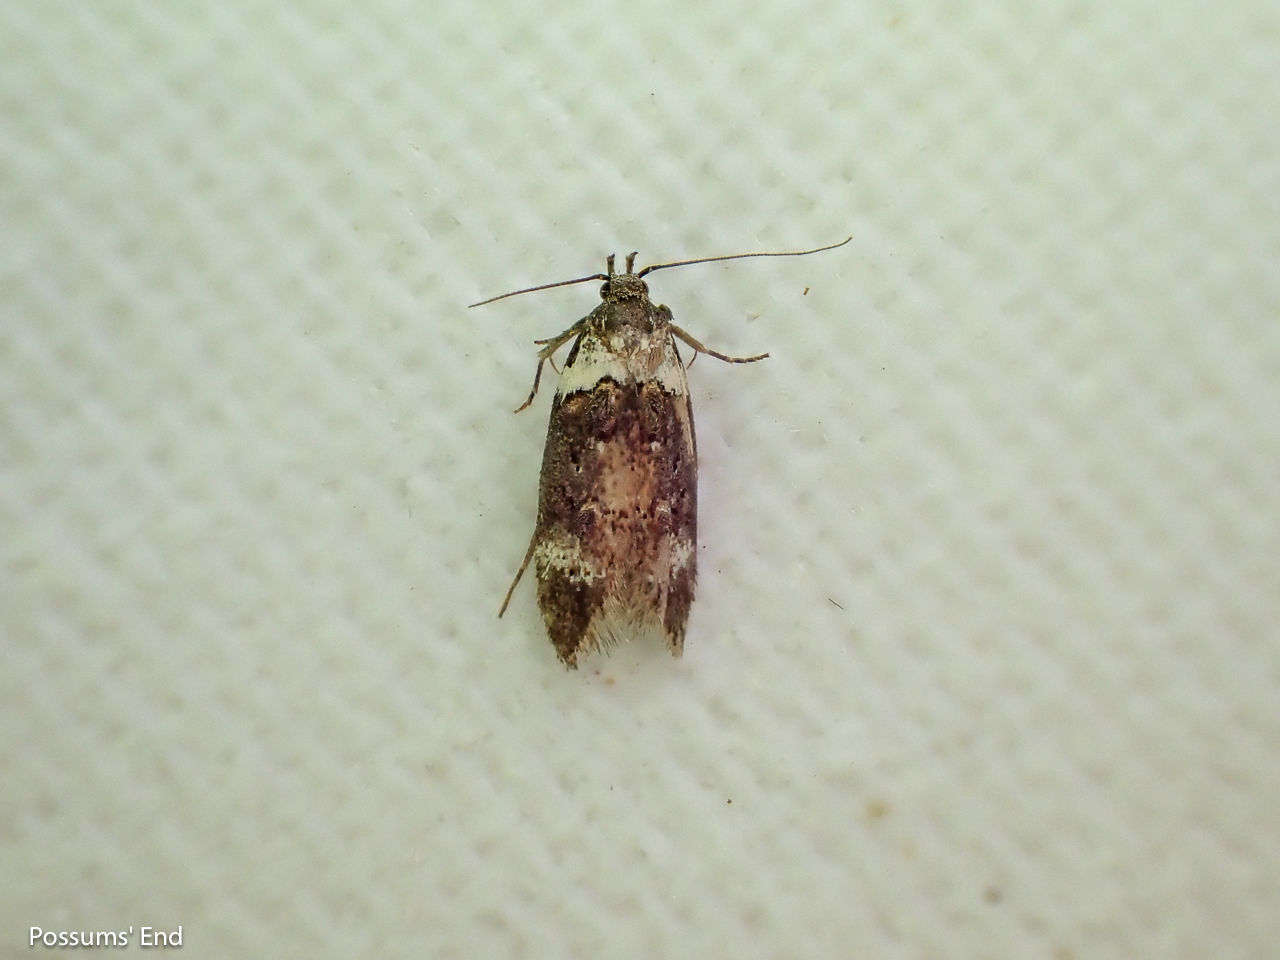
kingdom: Animalia
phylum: Arthropoda
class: Insecta
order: Lepidoptera
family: Oecophoridae
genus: Trachypepla
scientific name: Trachypepla conspicuella
